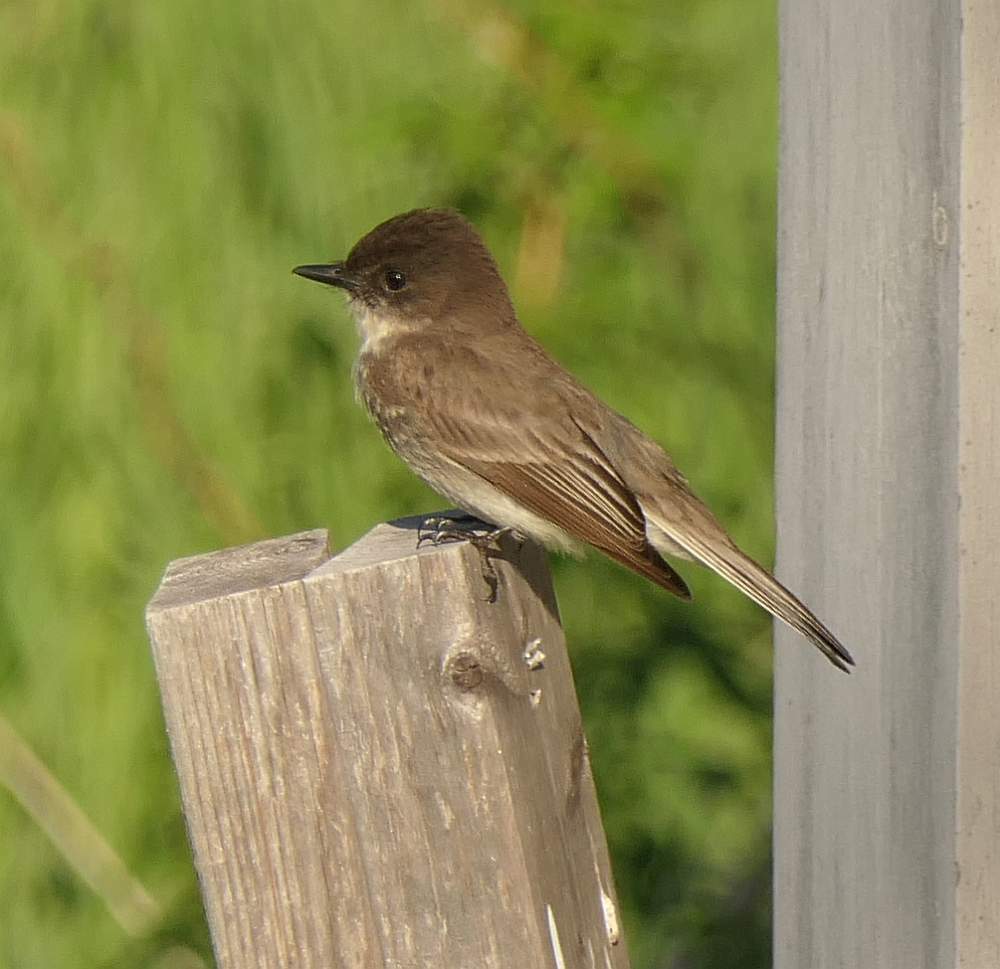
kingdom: Animalia
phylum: Chordata
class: Aves
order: Passeriformes
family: Tyrannidae
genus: Sayornis
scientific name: Sayornis phoebe
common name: Eastern phoebe
